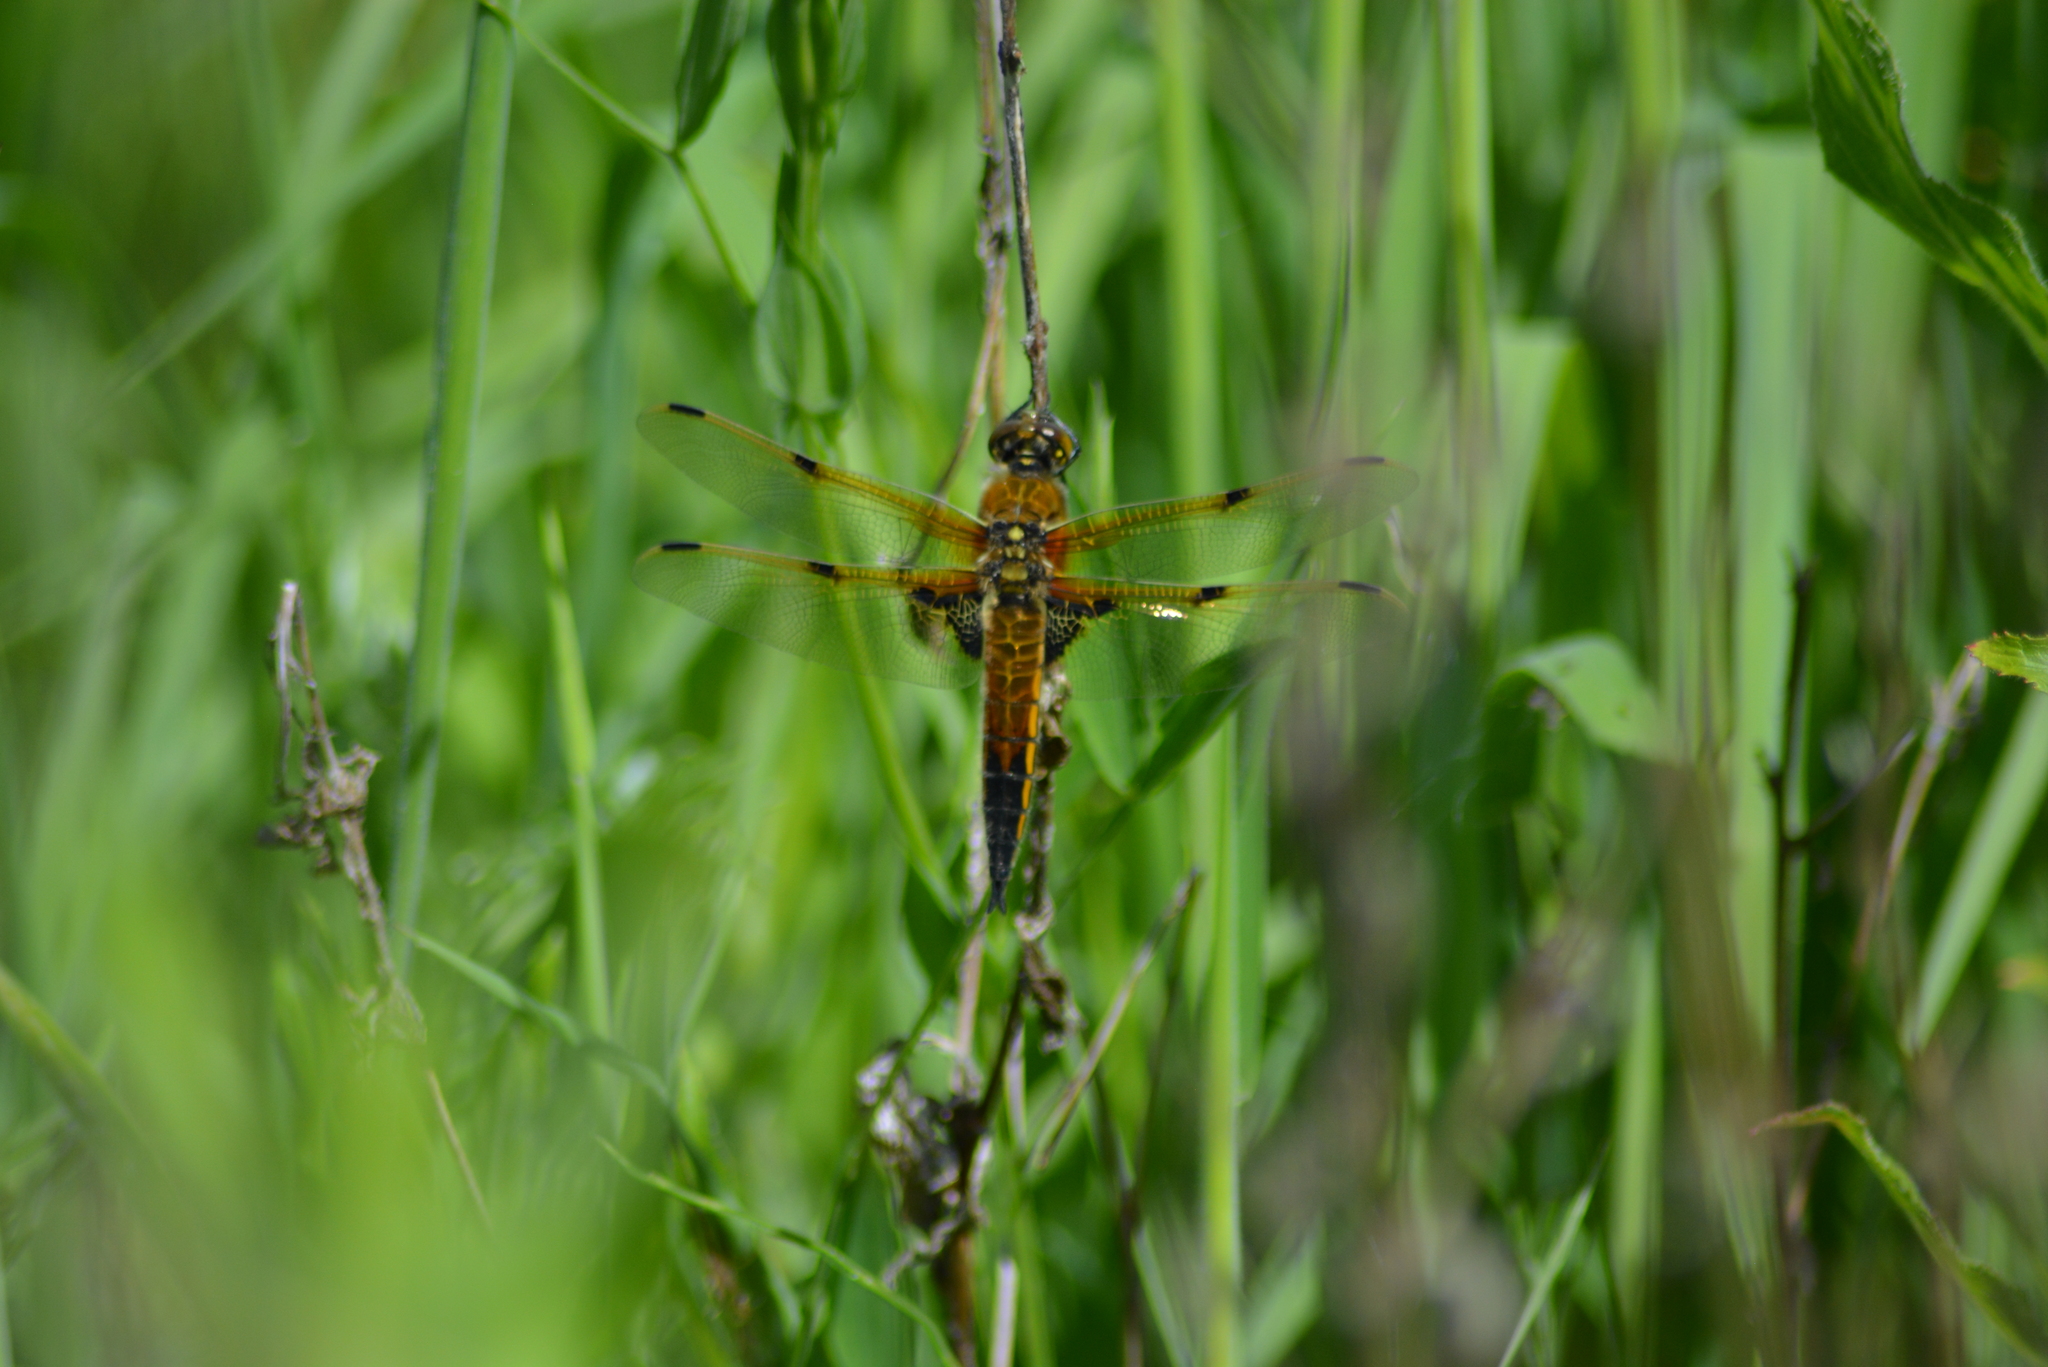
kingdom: Animalia
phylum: Arthropoda
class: Insecta
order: Odonata
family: Libellulidae
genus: Libellula
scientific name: Libellula quadrimaculata
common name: Four-spotted chaser
